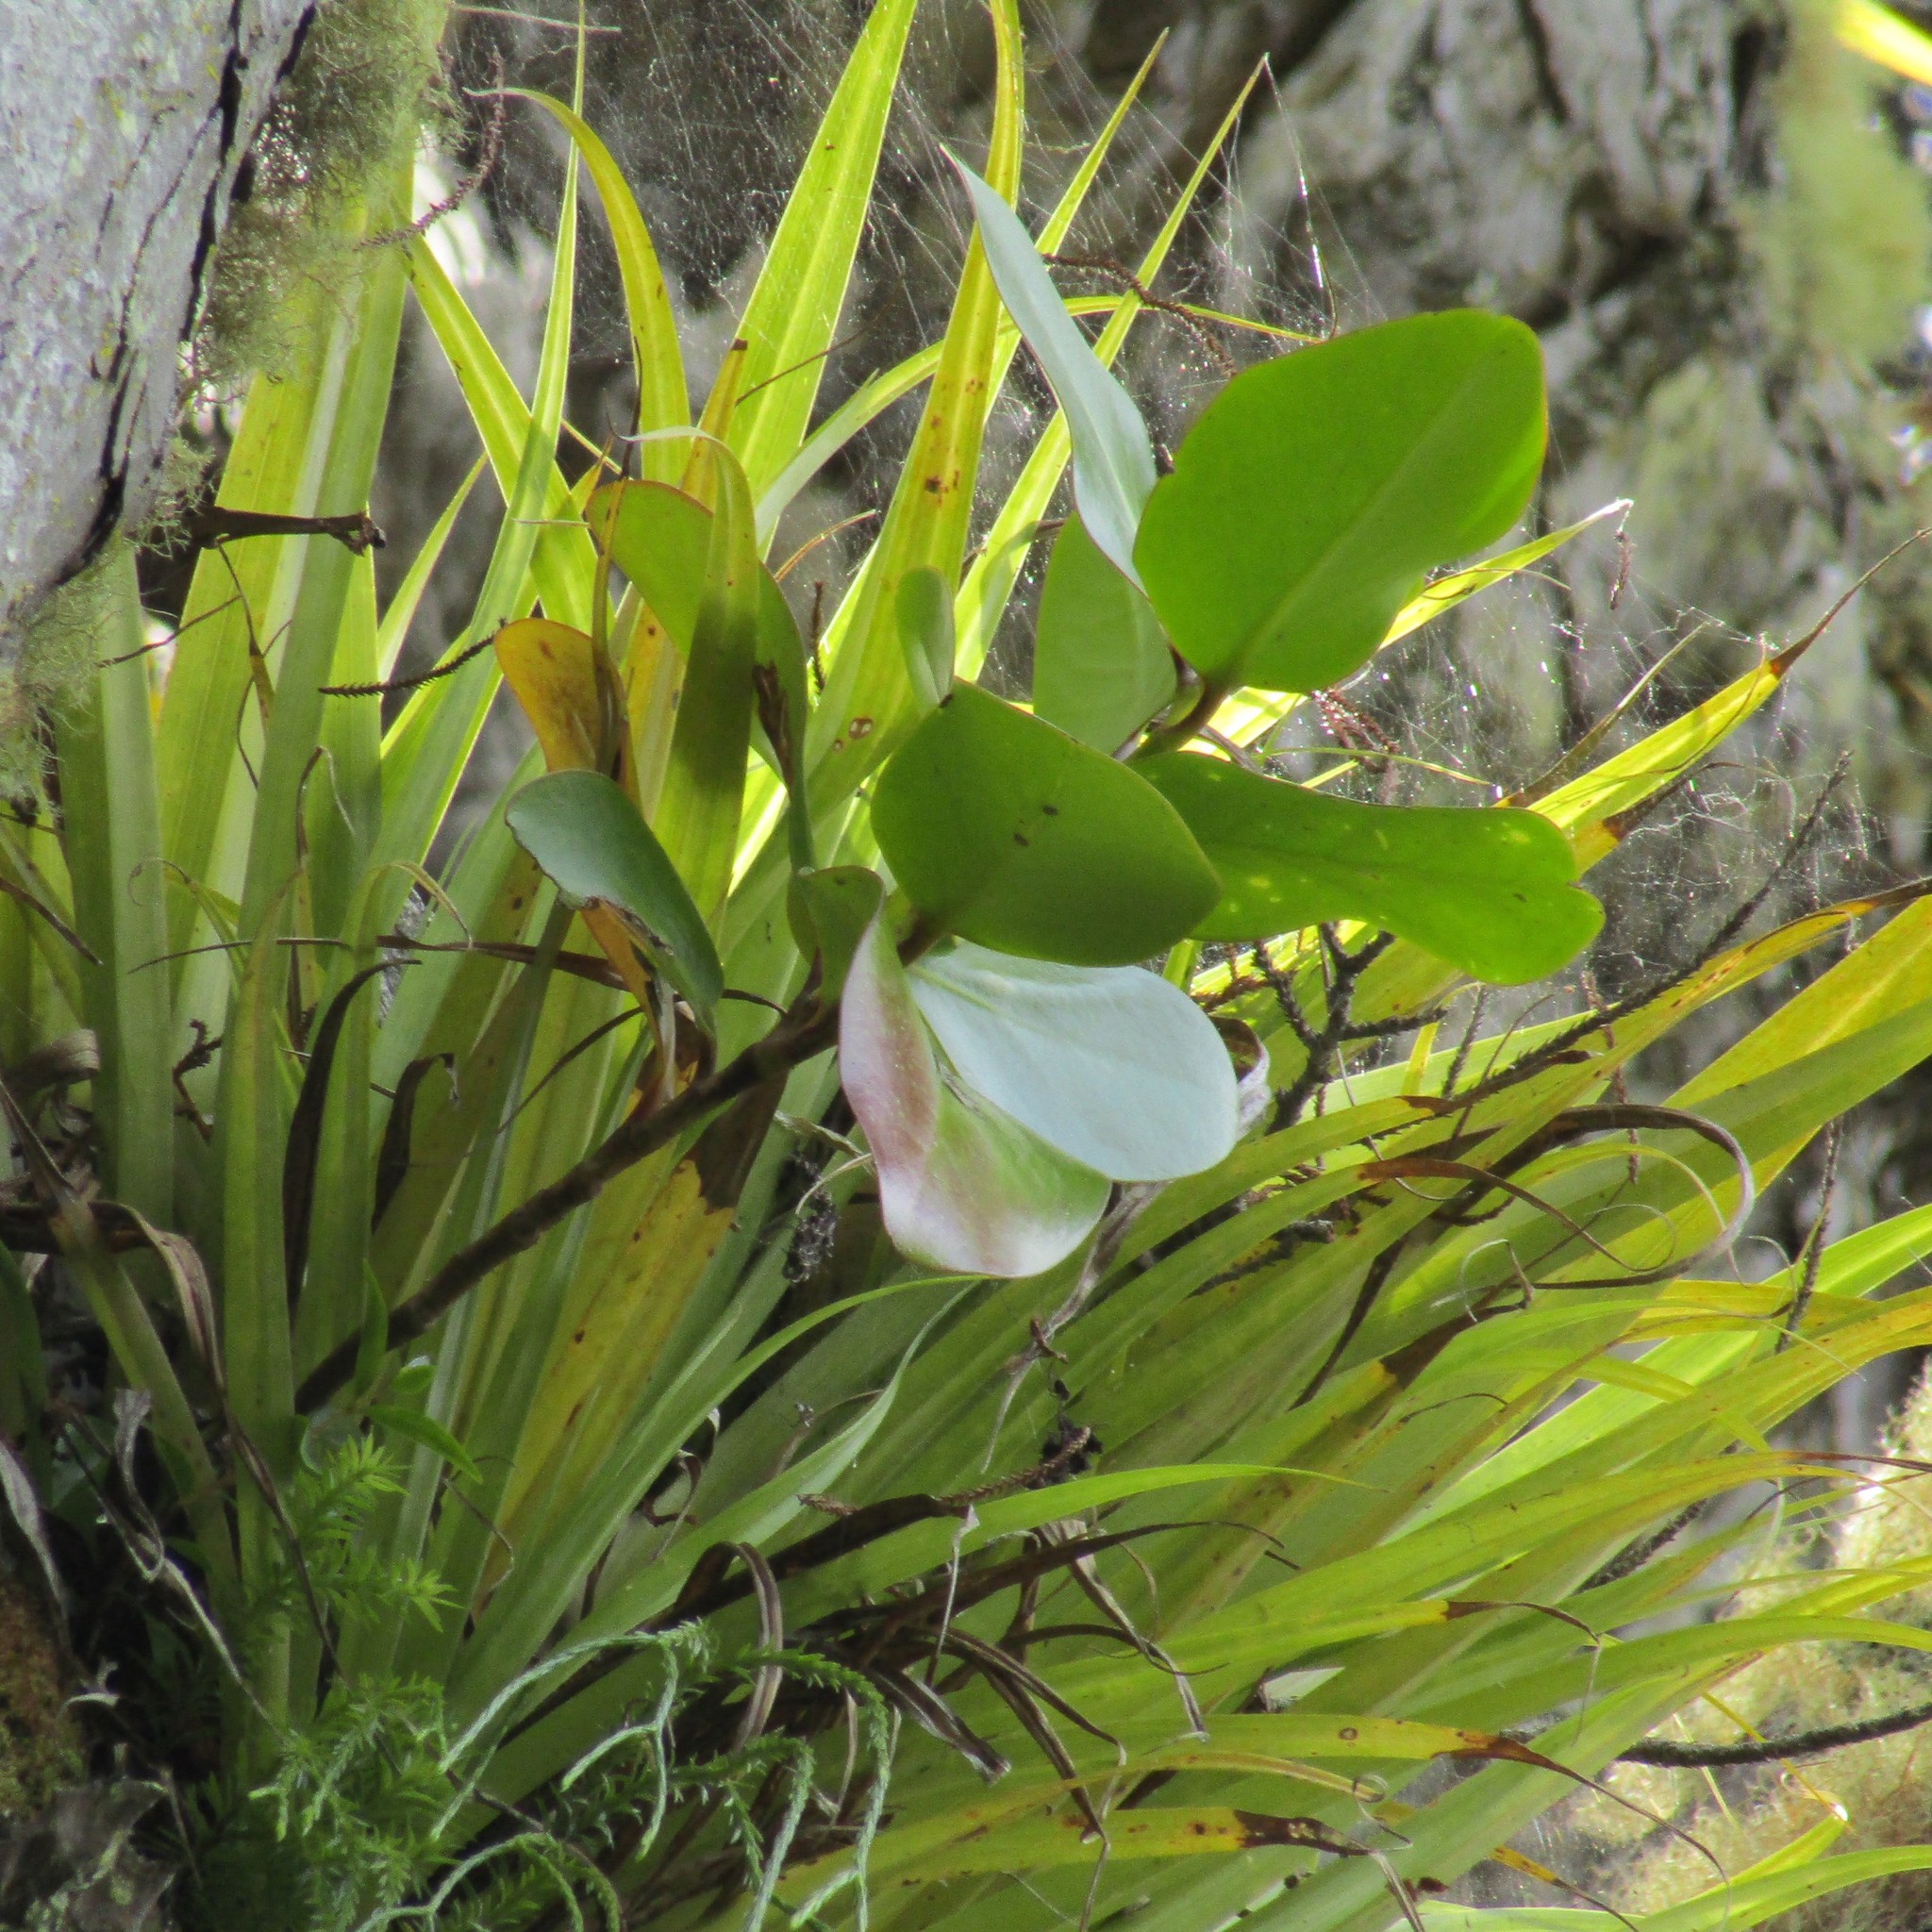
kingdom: Plantae
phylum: Tracheophyta
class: Magnoliopsida
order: Apiales
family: Griseliniaceae
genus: Griselinia
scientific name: Griselinia lucida
